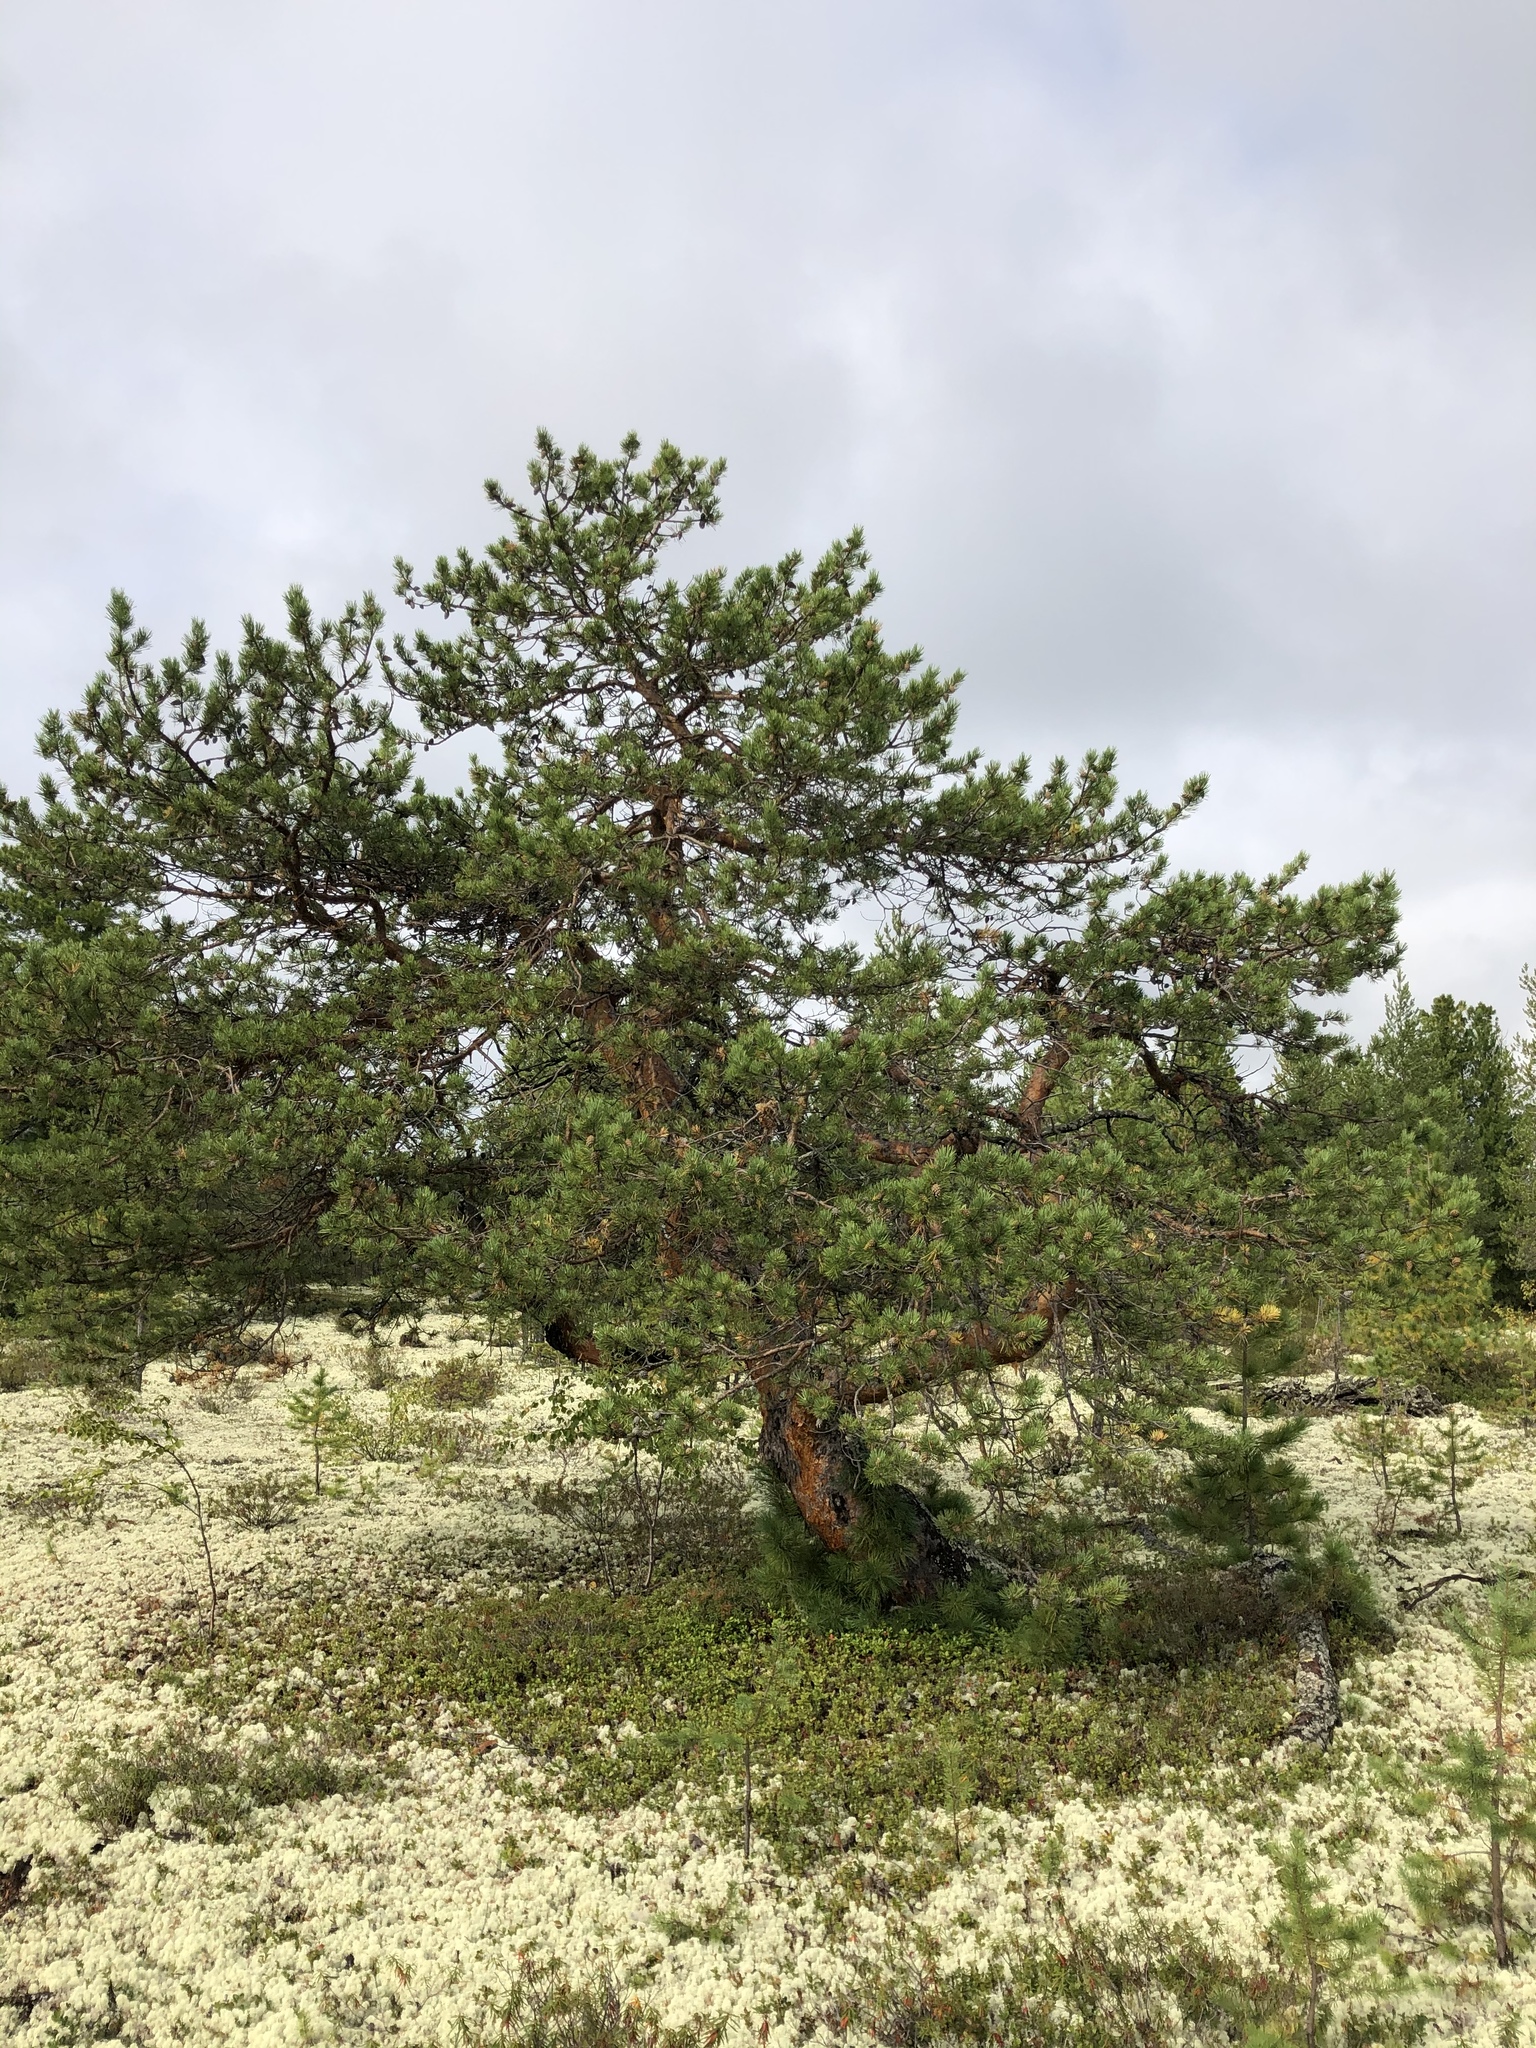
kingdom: Plantae
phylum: Tracheophyta
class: Pinopsida
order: Pinales
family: Pinaceae
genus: Pinus
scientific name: Pinus sylvestris
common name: Scots pine
